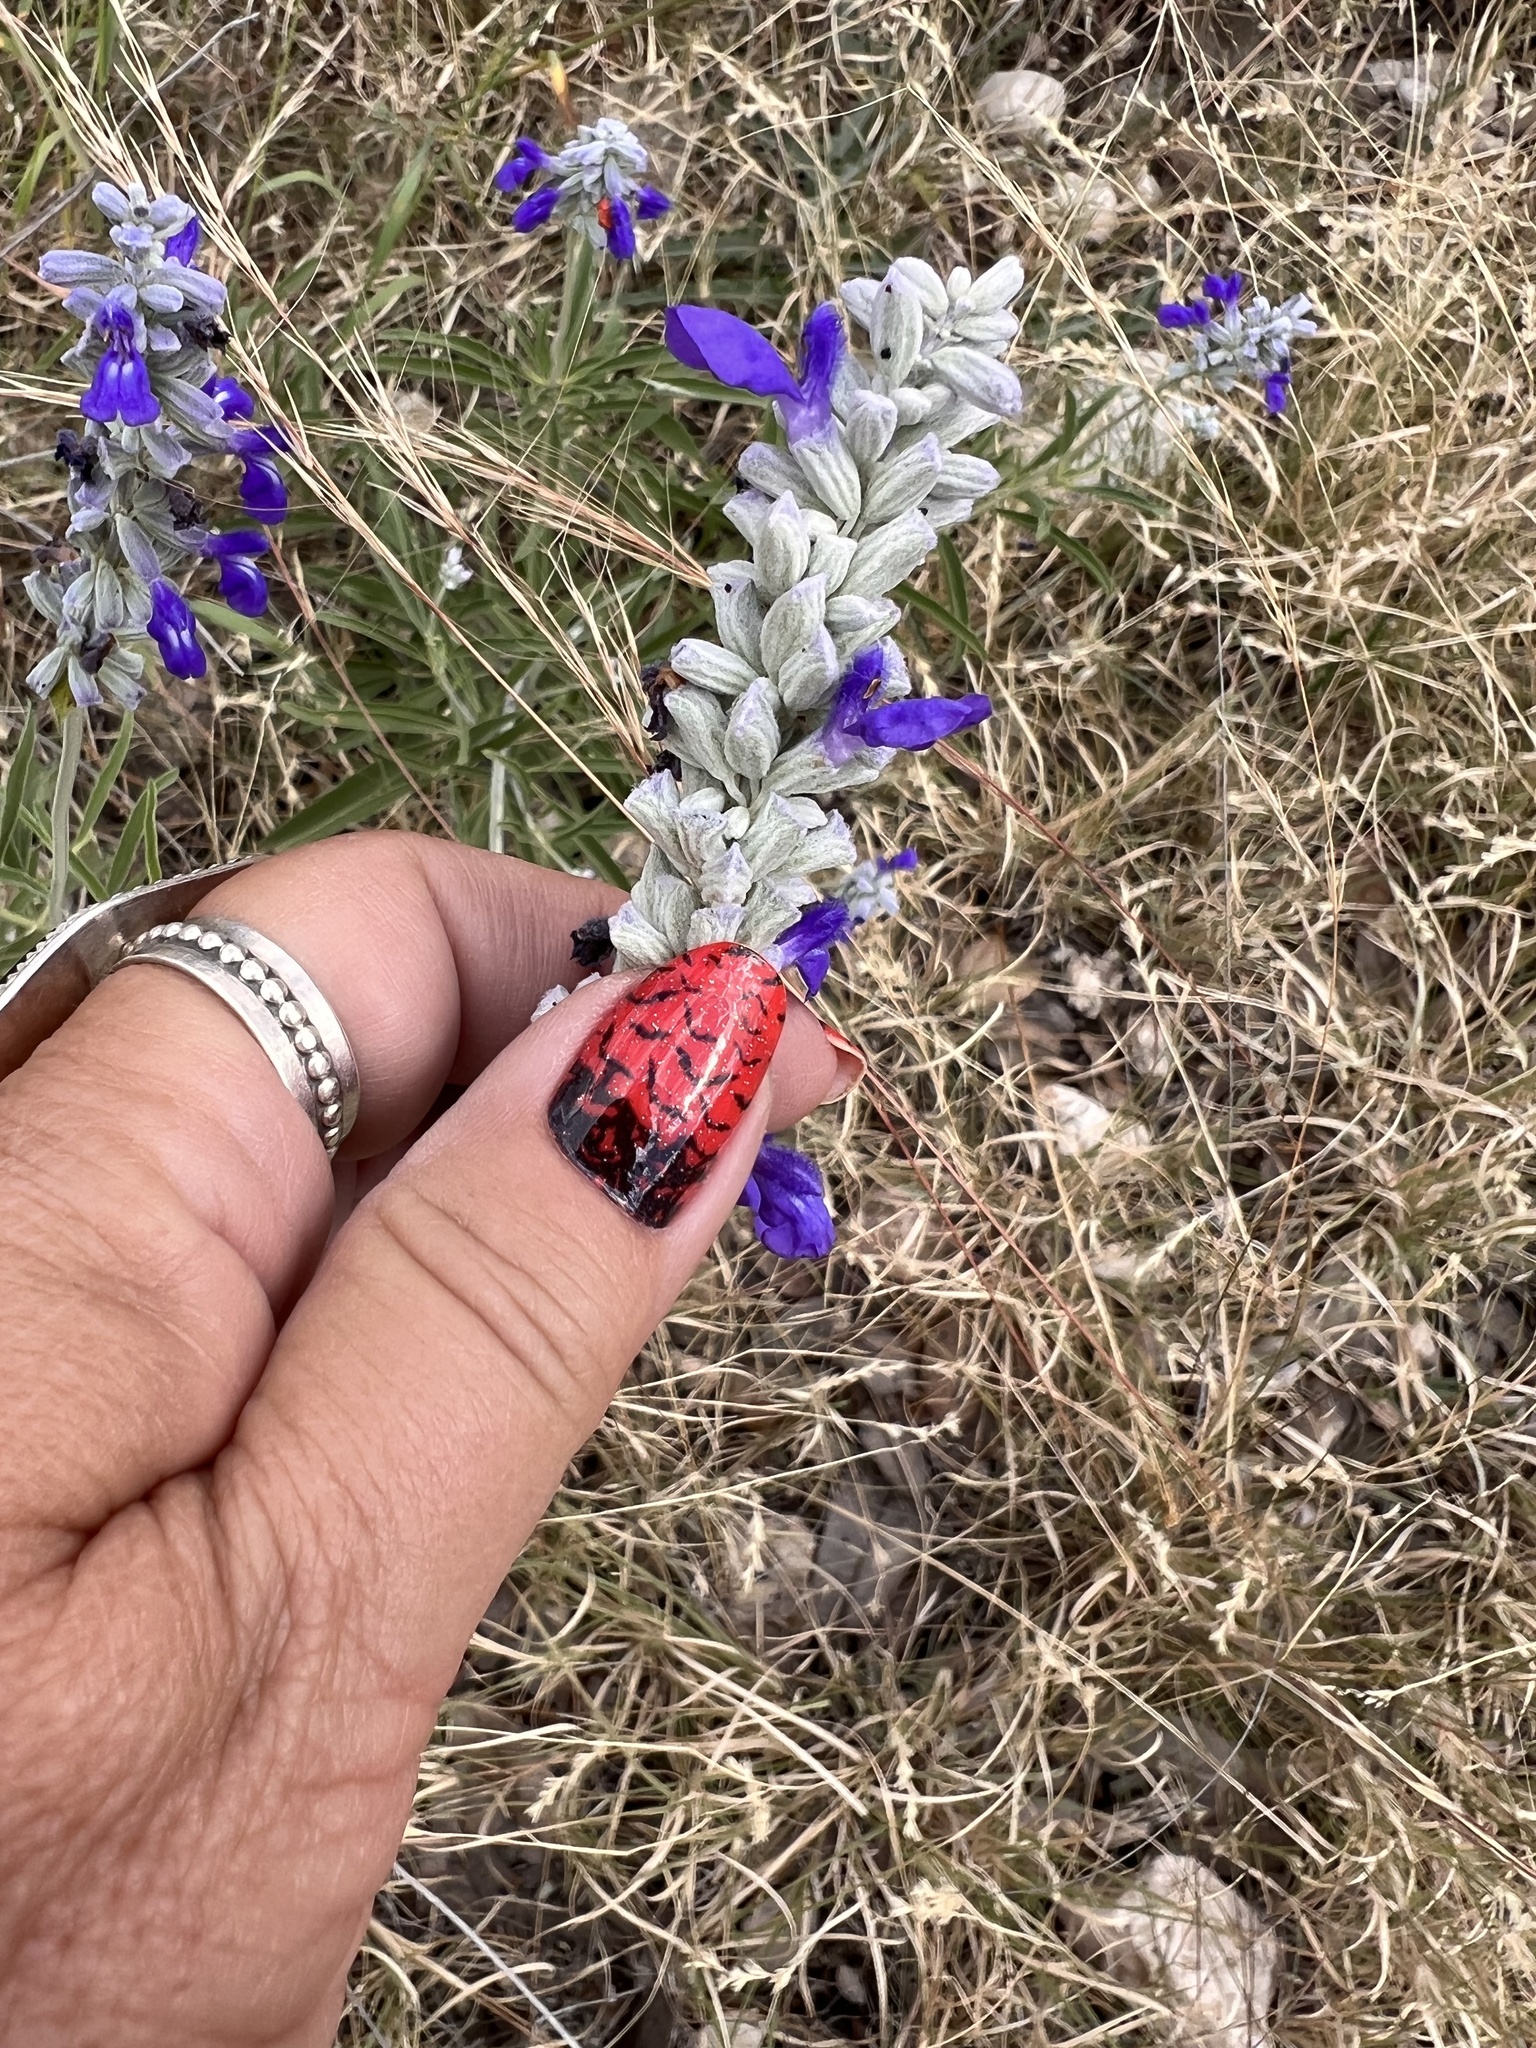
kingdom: Plantae
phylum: Tracheophyta
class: Magnoliopsida
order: Lamiales
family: Lamiaceae
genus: Salvia
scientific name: Salvia farinacea
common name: Mealy sage
